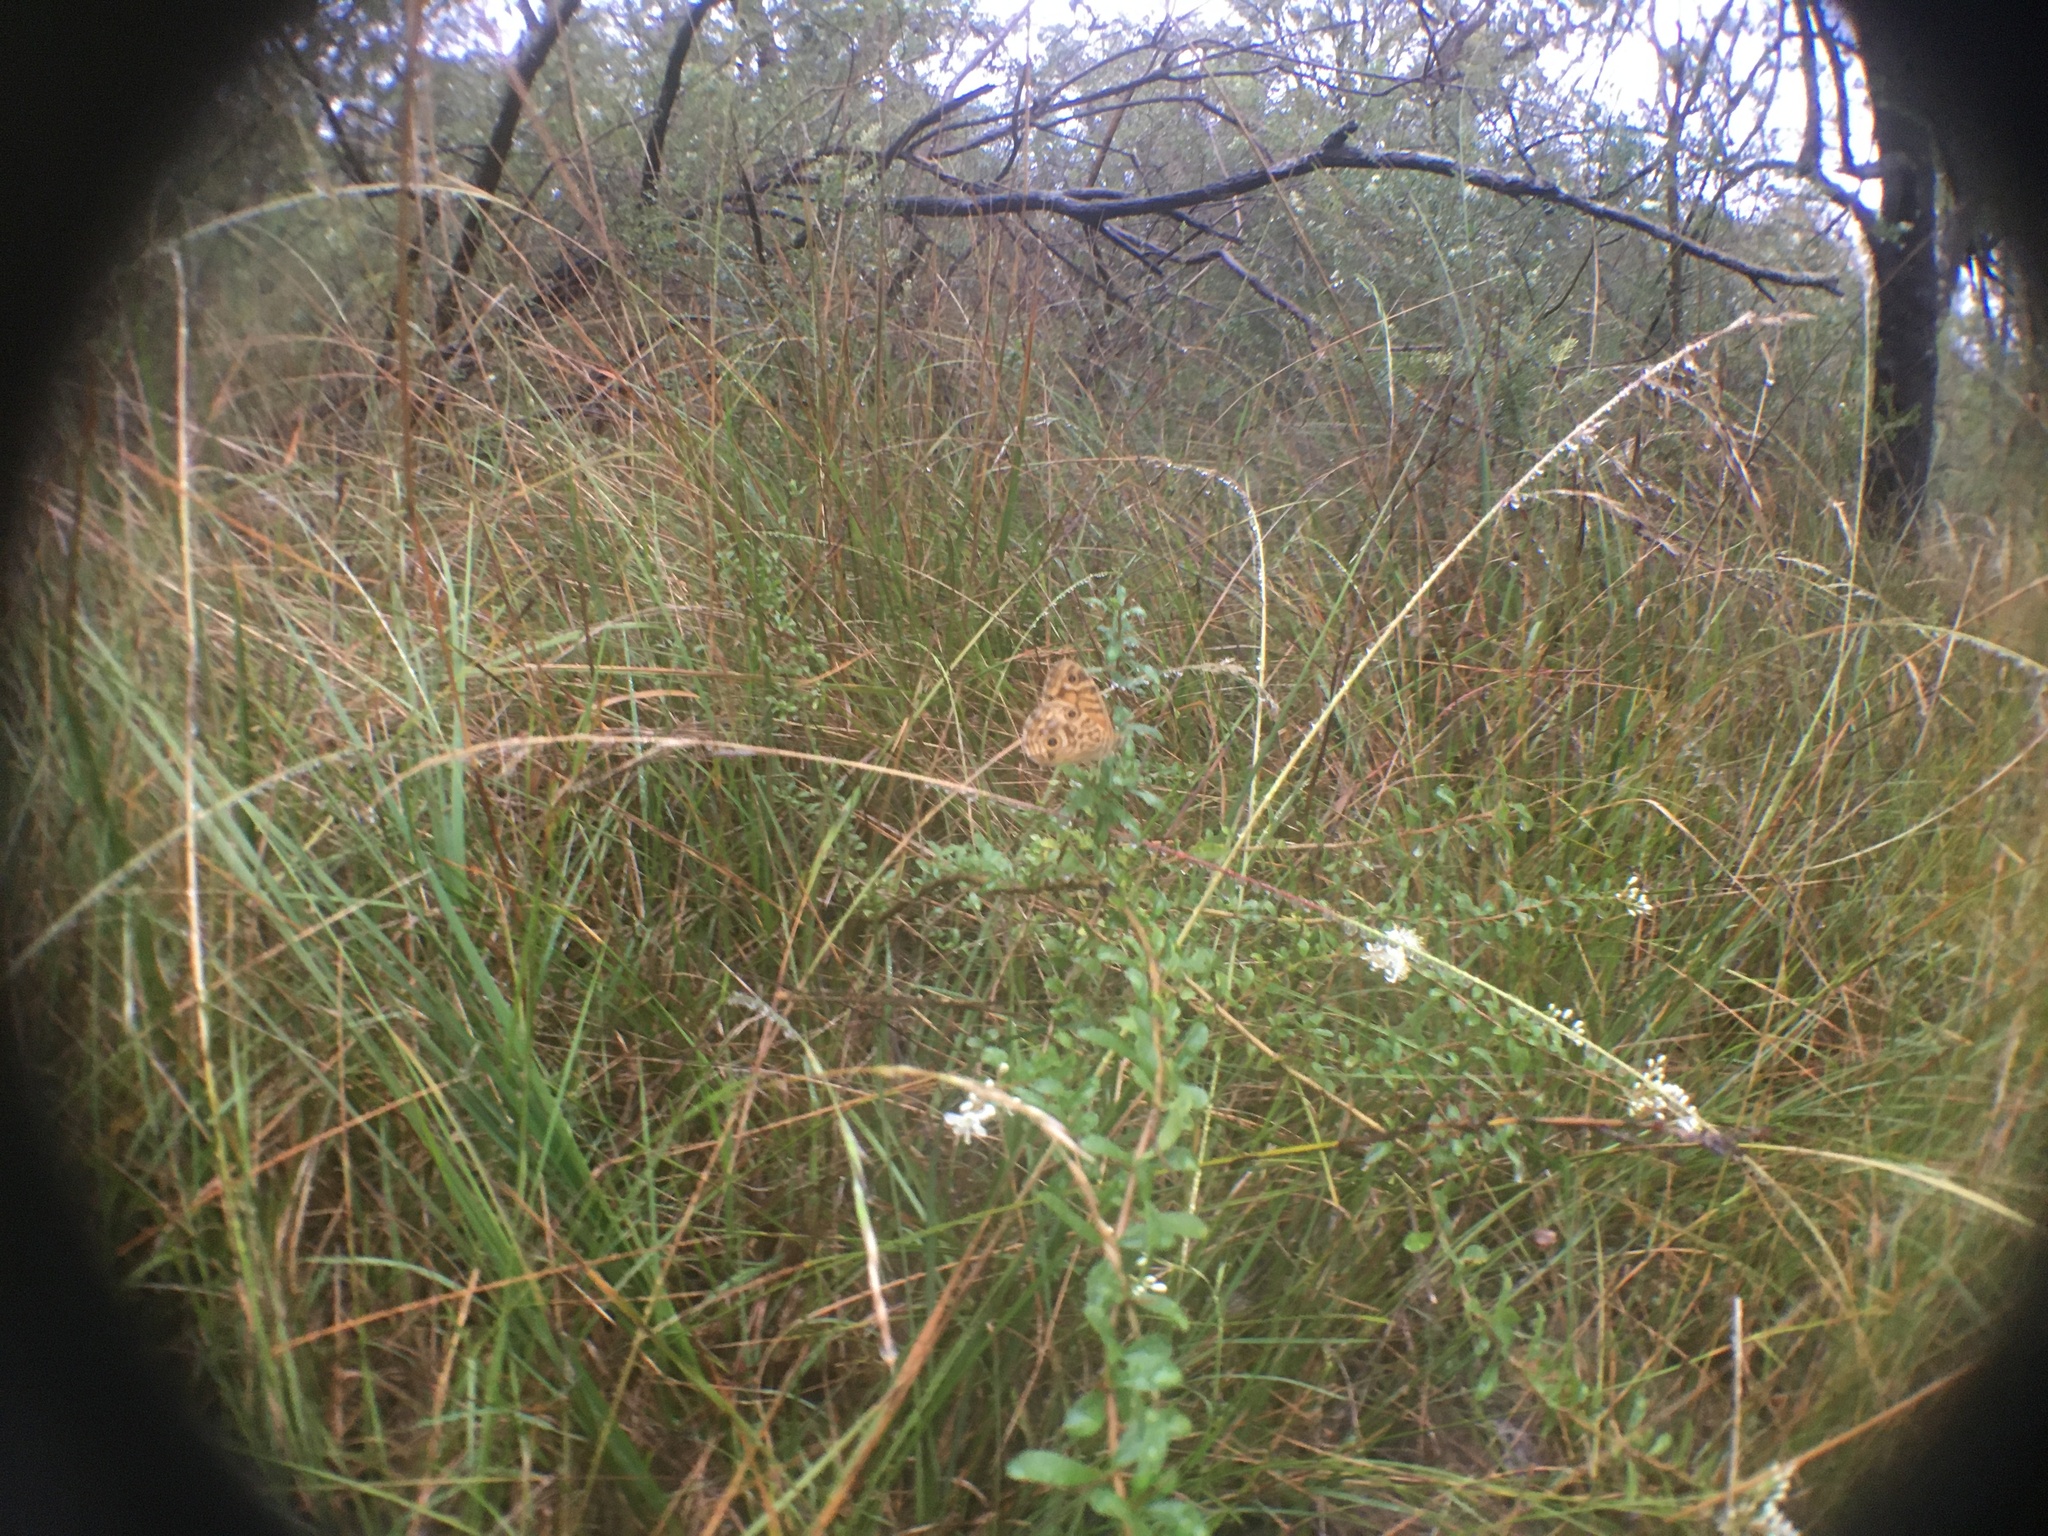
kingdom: Animalia
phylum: Arthropoda
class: Insecta
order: Lepidoptera
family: Nymphalidae
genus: Geitoneura
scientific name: Geitoneura acantha
